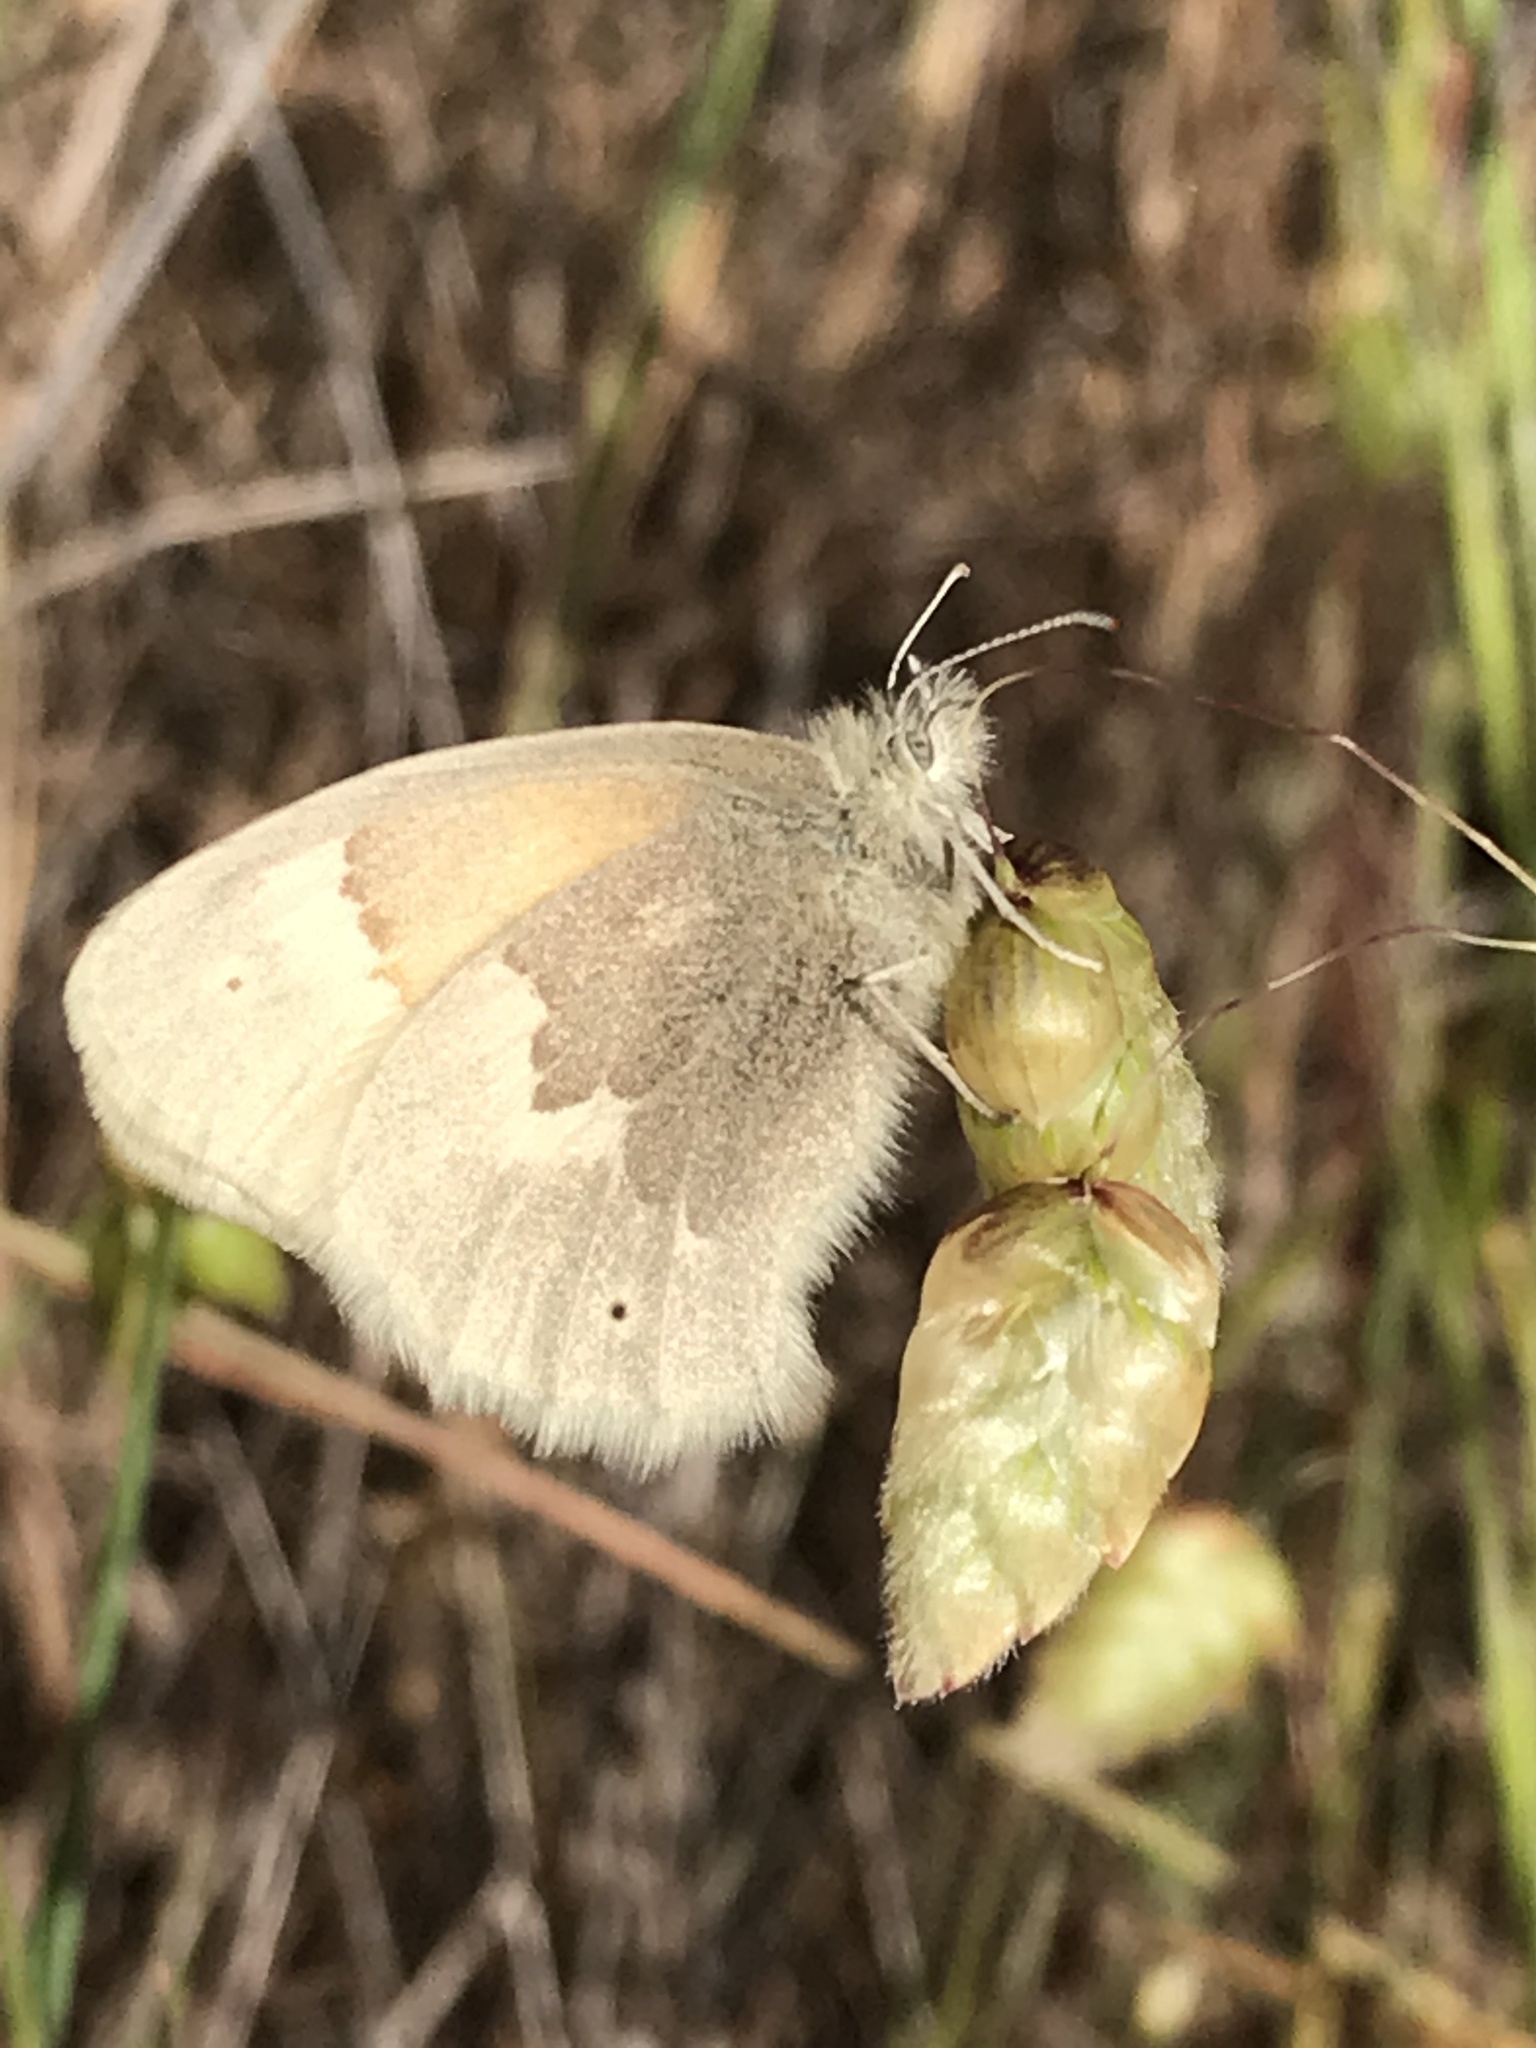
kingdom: Animalia
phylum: Arthropoda
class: Insecta
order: Lepidoptera
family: Nymphalidae
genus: Coenonympha
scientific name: Coenonympha california
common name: Common ringlet
